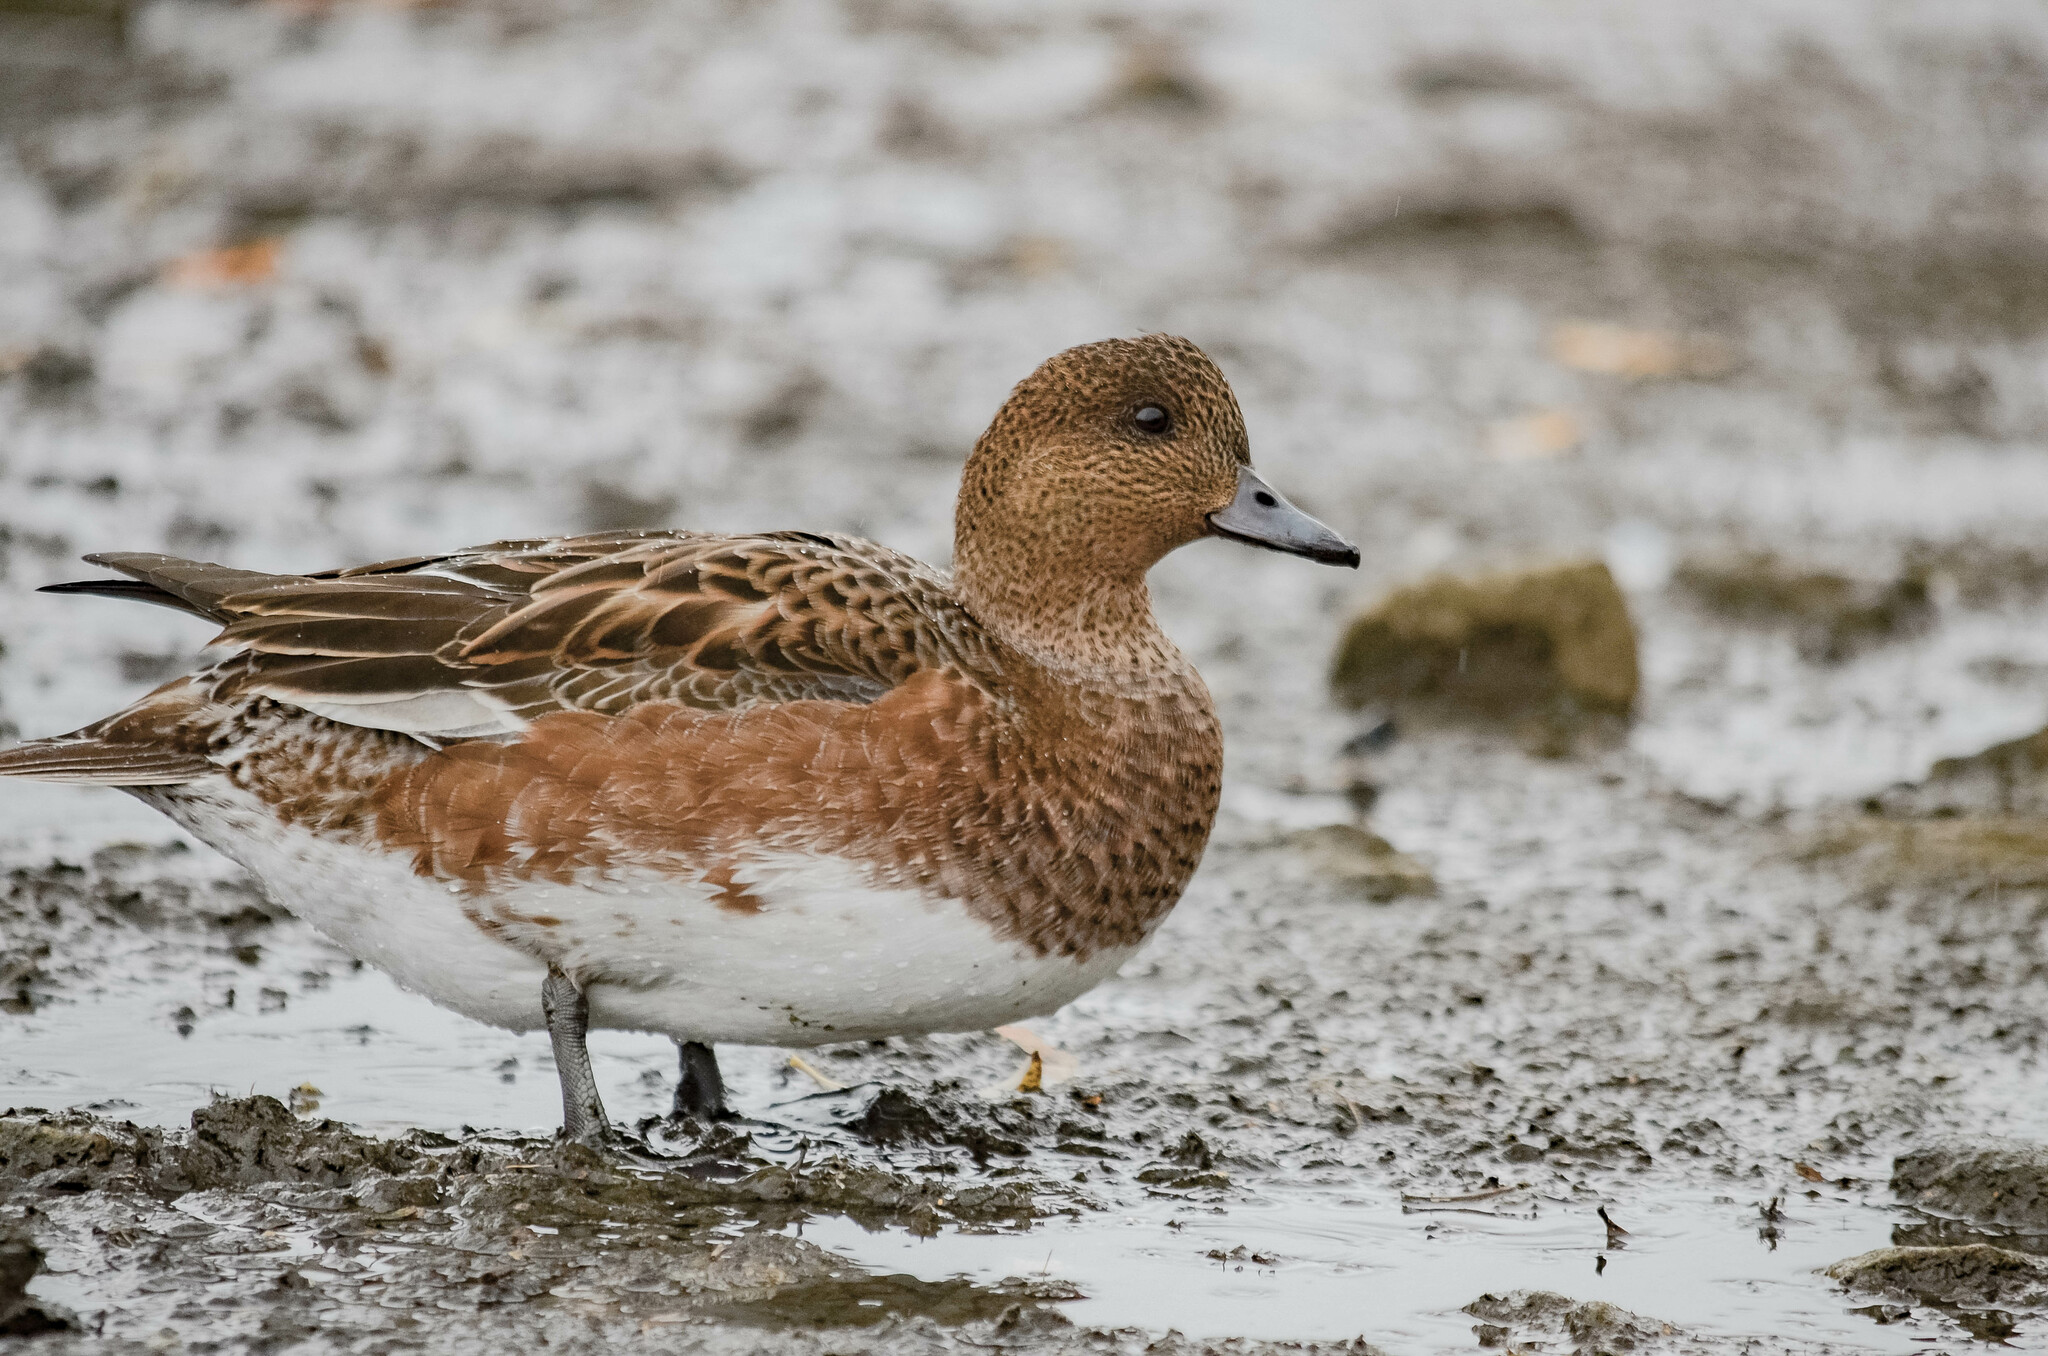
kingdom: Animalia
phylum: Chordata
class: Aves
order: Anseriformes
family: Anatidae
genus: Mareca
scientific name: Mareca penelope
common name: Eurasian wigeon
